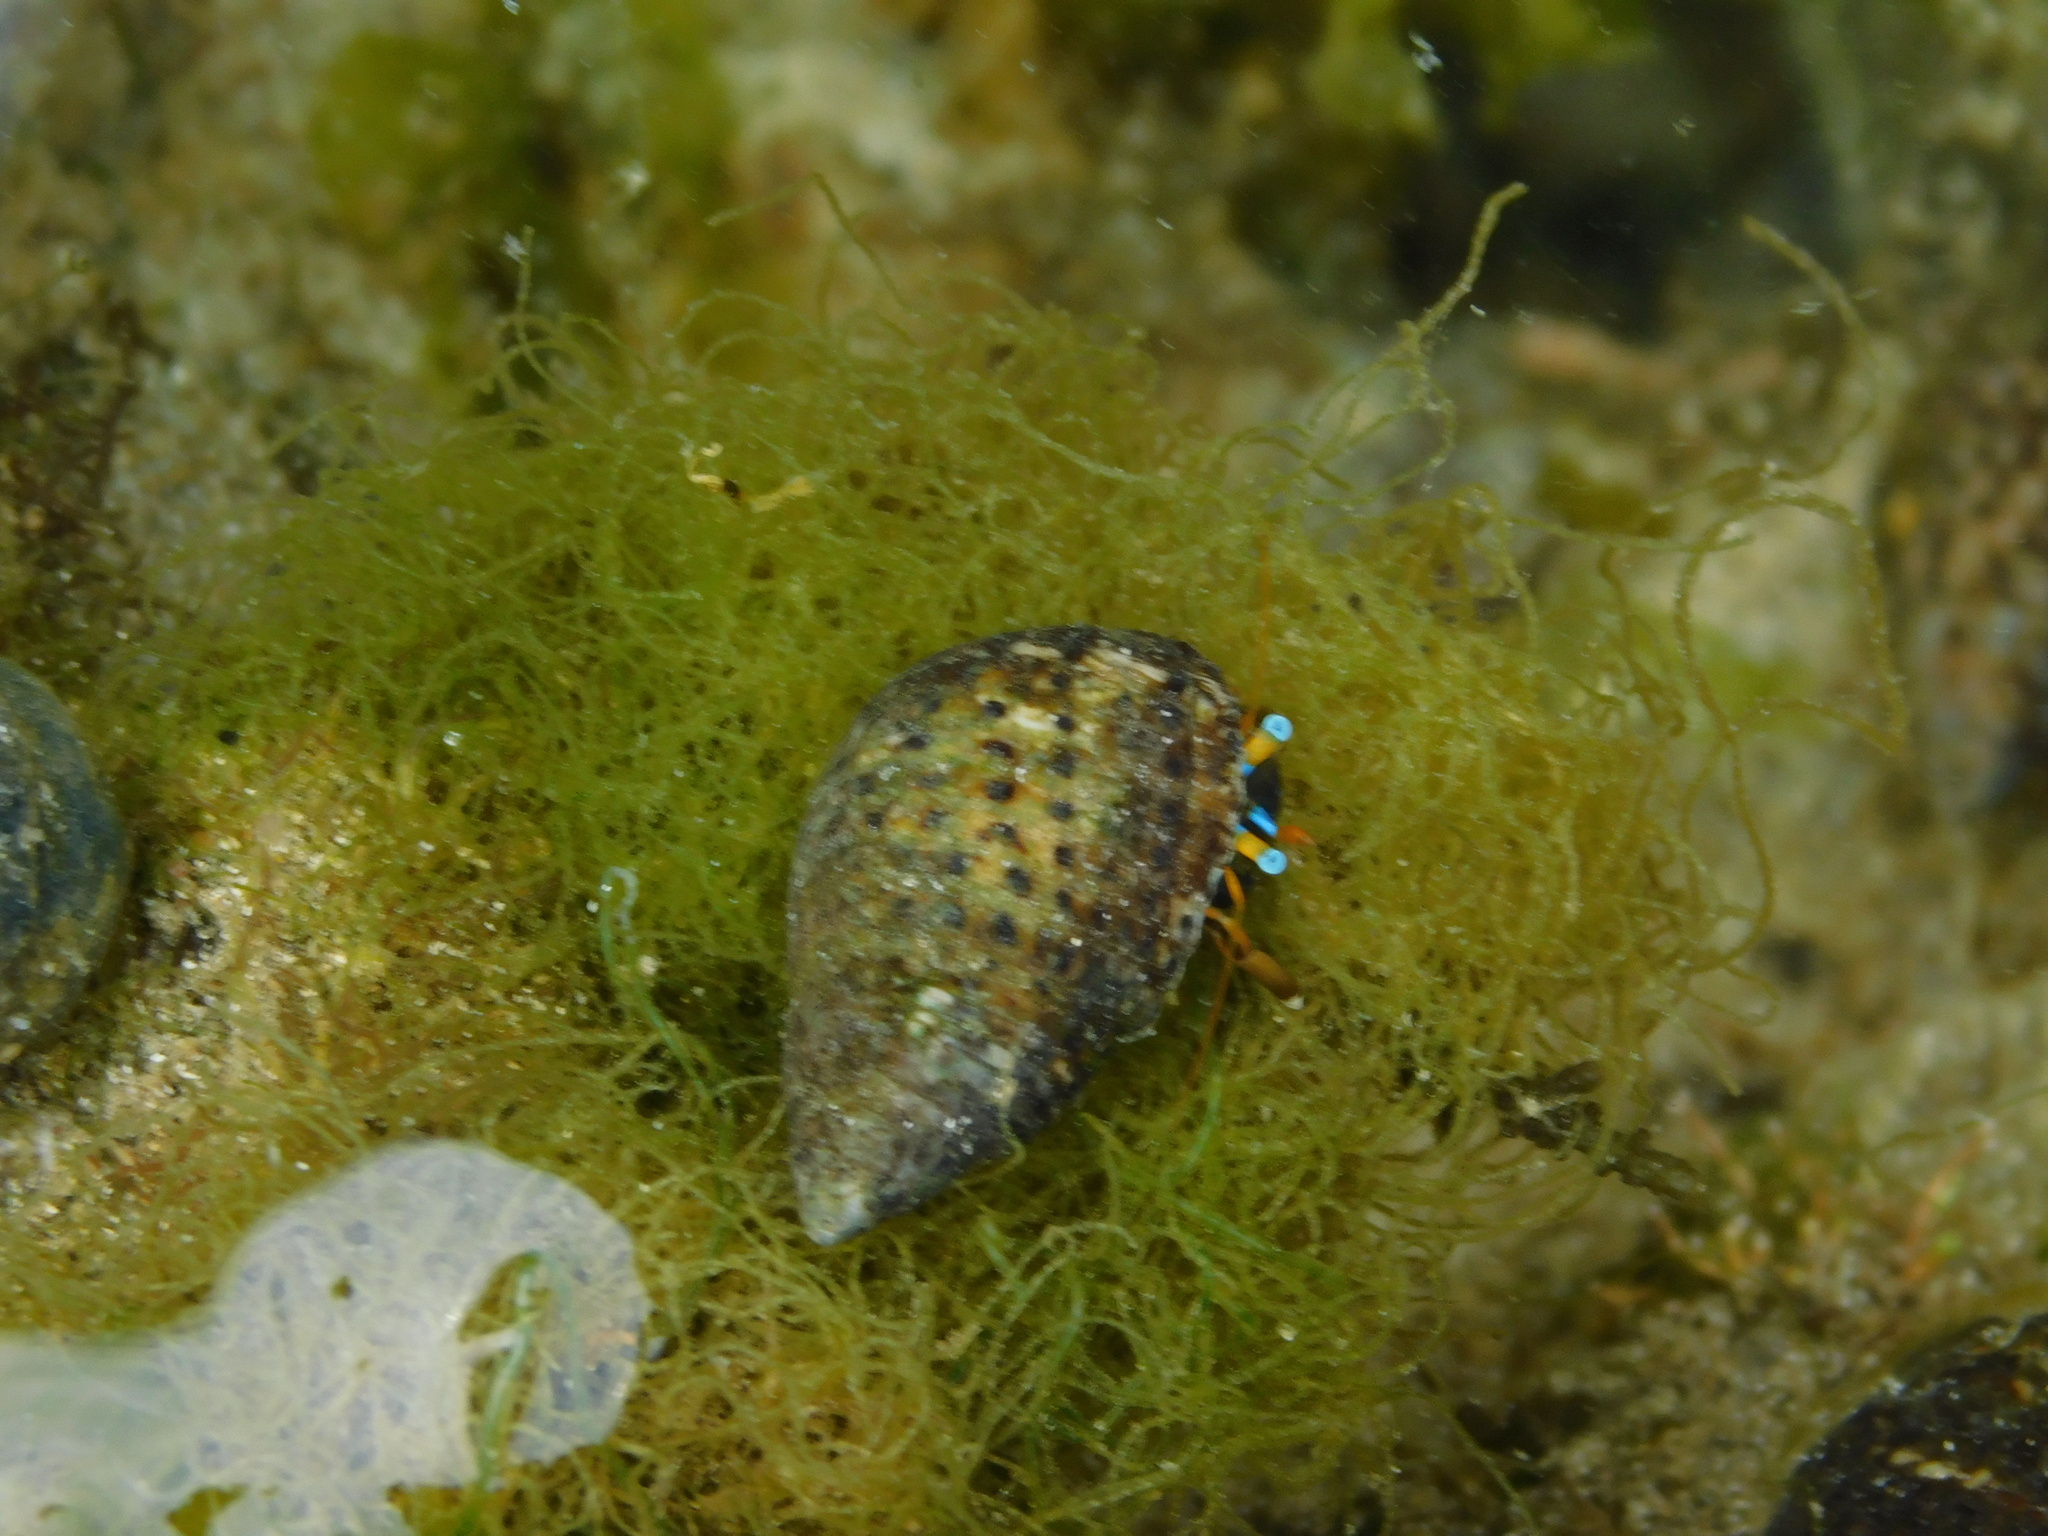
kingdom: Animalia
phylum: Arthropoda
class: Malacostraca
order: Decapoda
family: Diogenidae
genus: Calcinus
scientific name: Calcinus laevimanus
